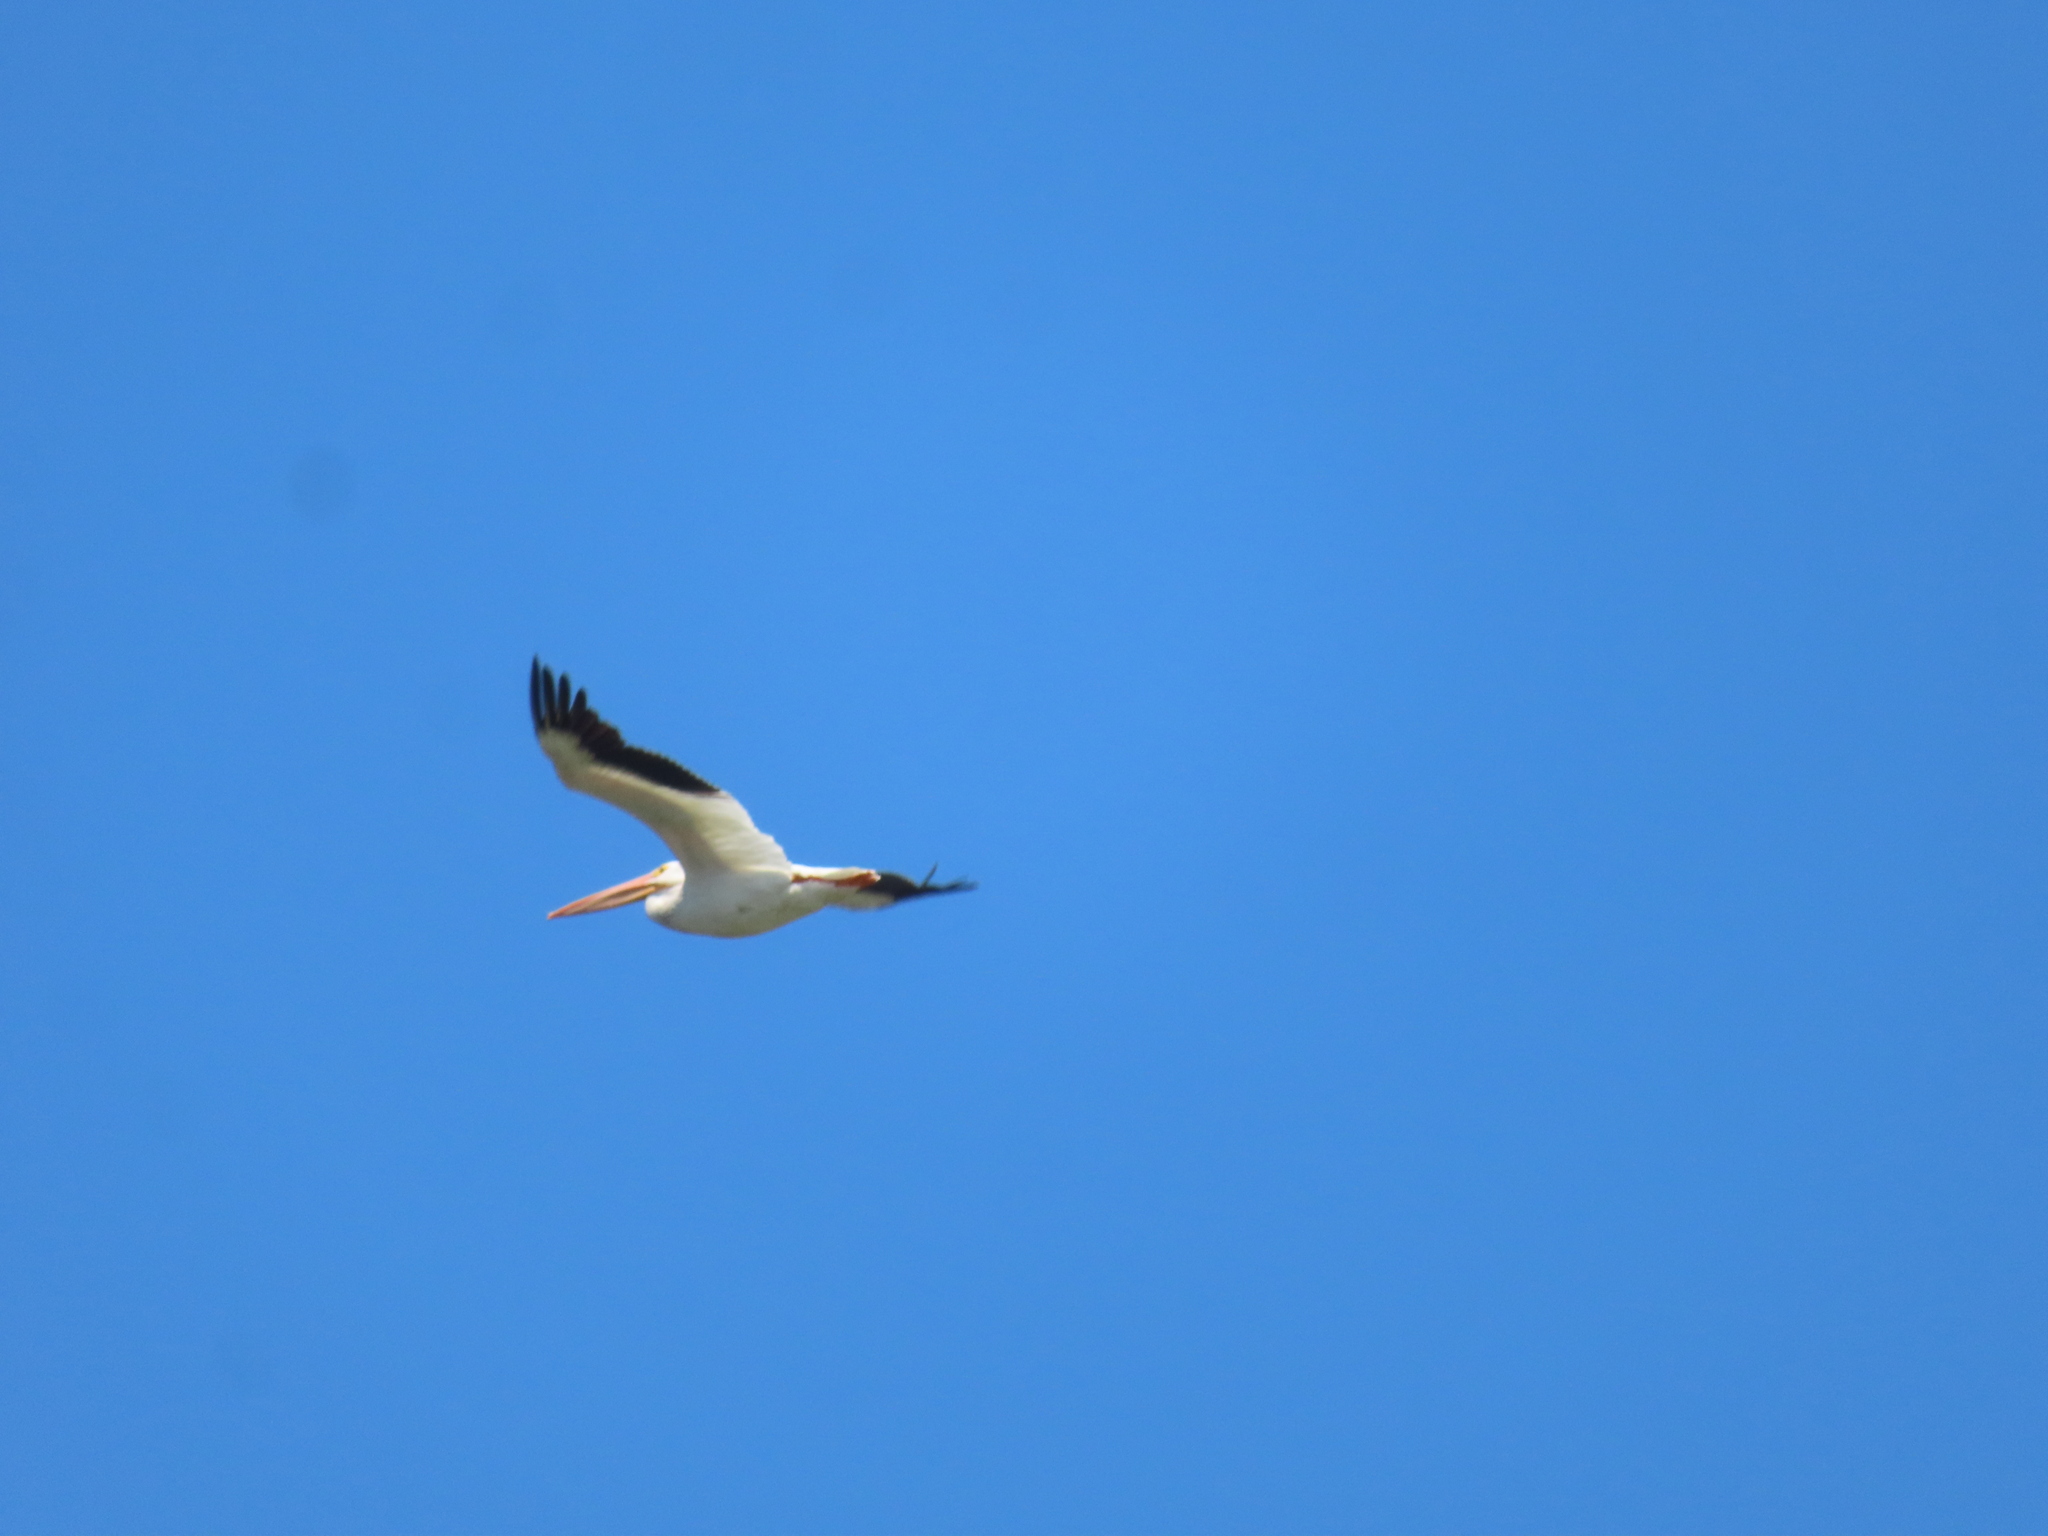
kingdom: Animalia
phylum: Chordata
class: Aves
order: Pelecaniformes
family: Pelecanidae
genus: Pelecanus
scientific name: Pelecanus erythrorhynchos
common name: American white pelican
